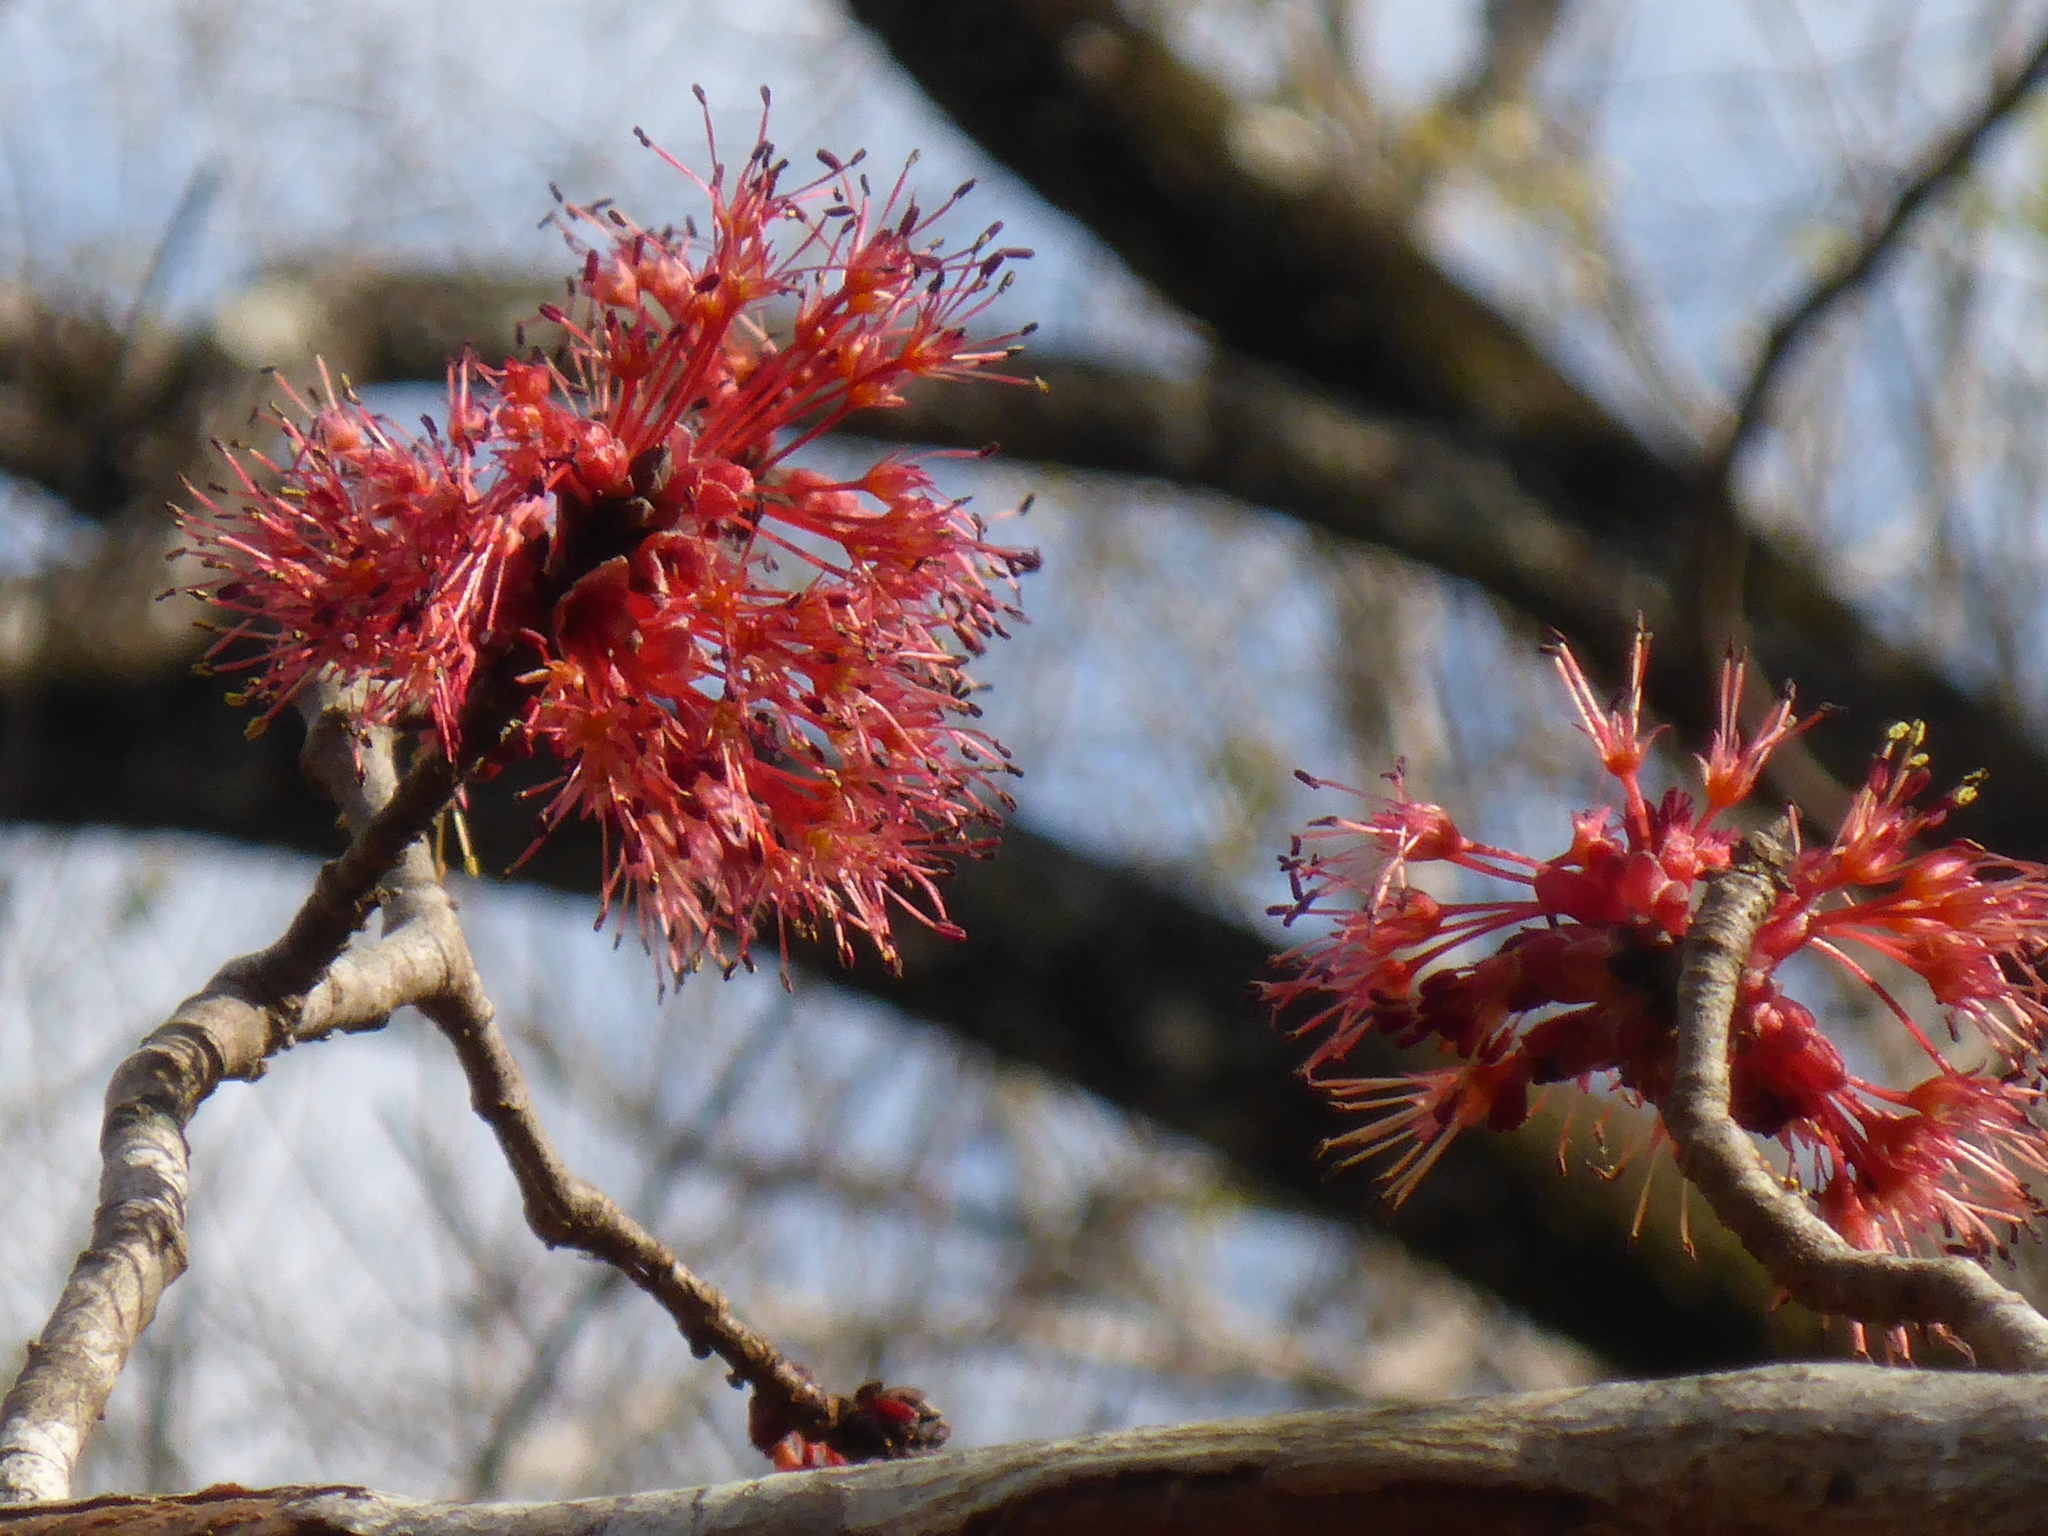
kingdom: Plantae
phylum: Tracheophyta
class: Magnoliopsida
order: Sapindales
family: Sapindaceae
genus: Acer
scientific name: Acer rubrum
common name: Red maple
